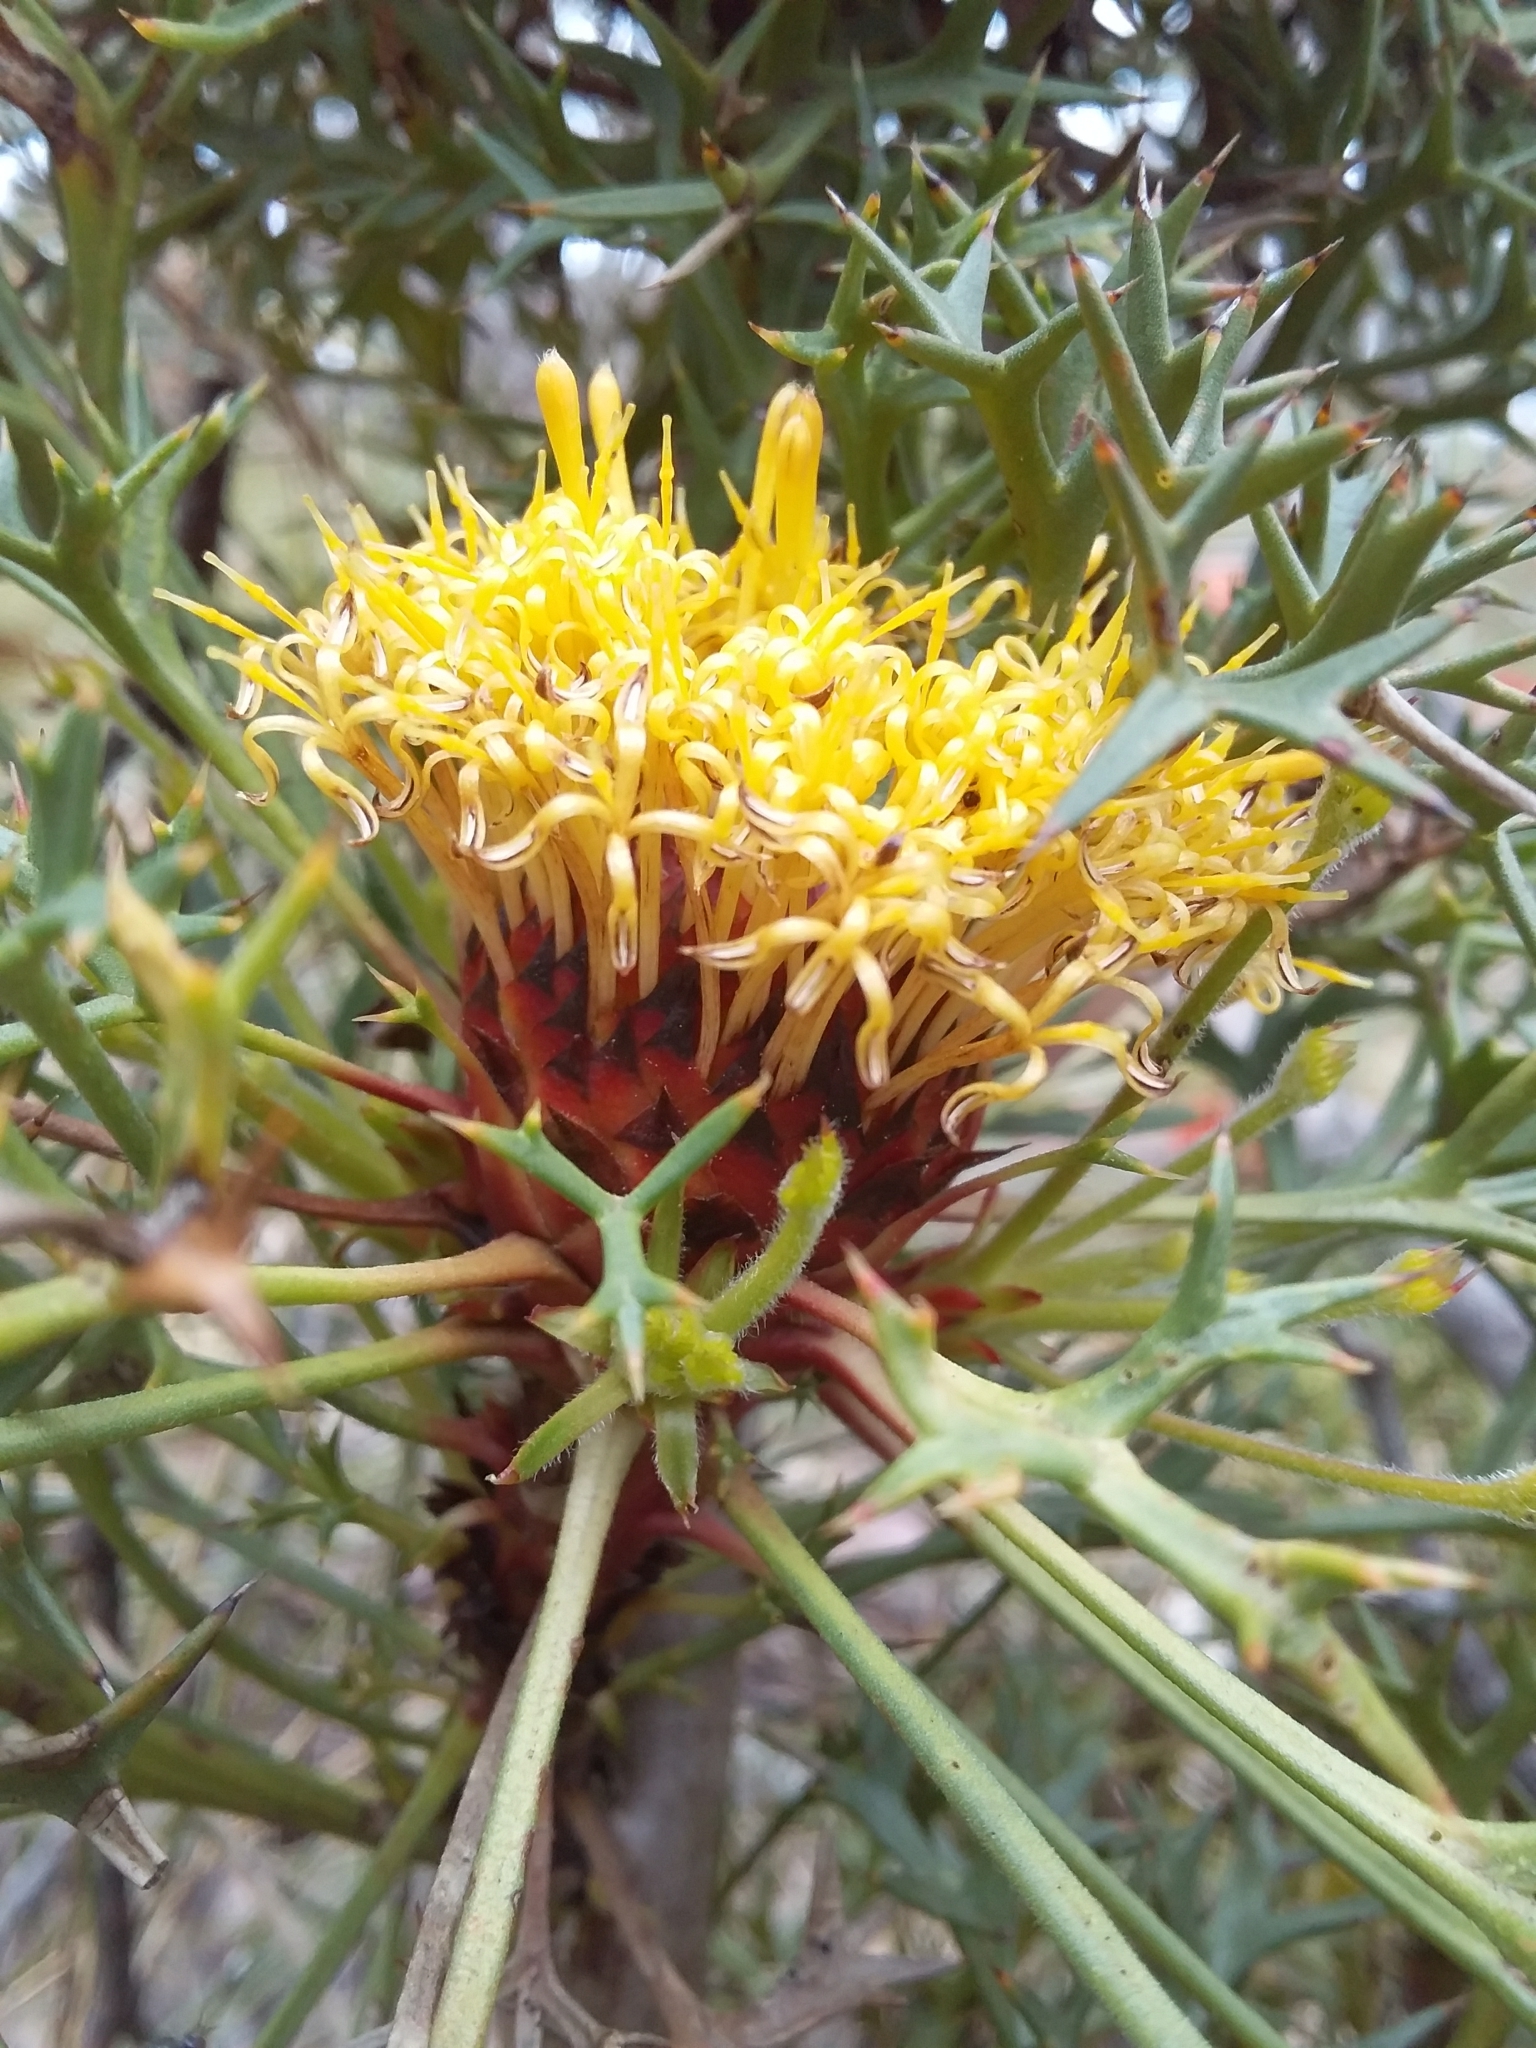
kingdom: Plantae
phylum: Tracheophyta
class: Magnoliopsida
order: Proteales
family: Proteaceae
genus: Isopogon
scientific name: Isopogon ceratophyllus
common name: Horny cone-bush
